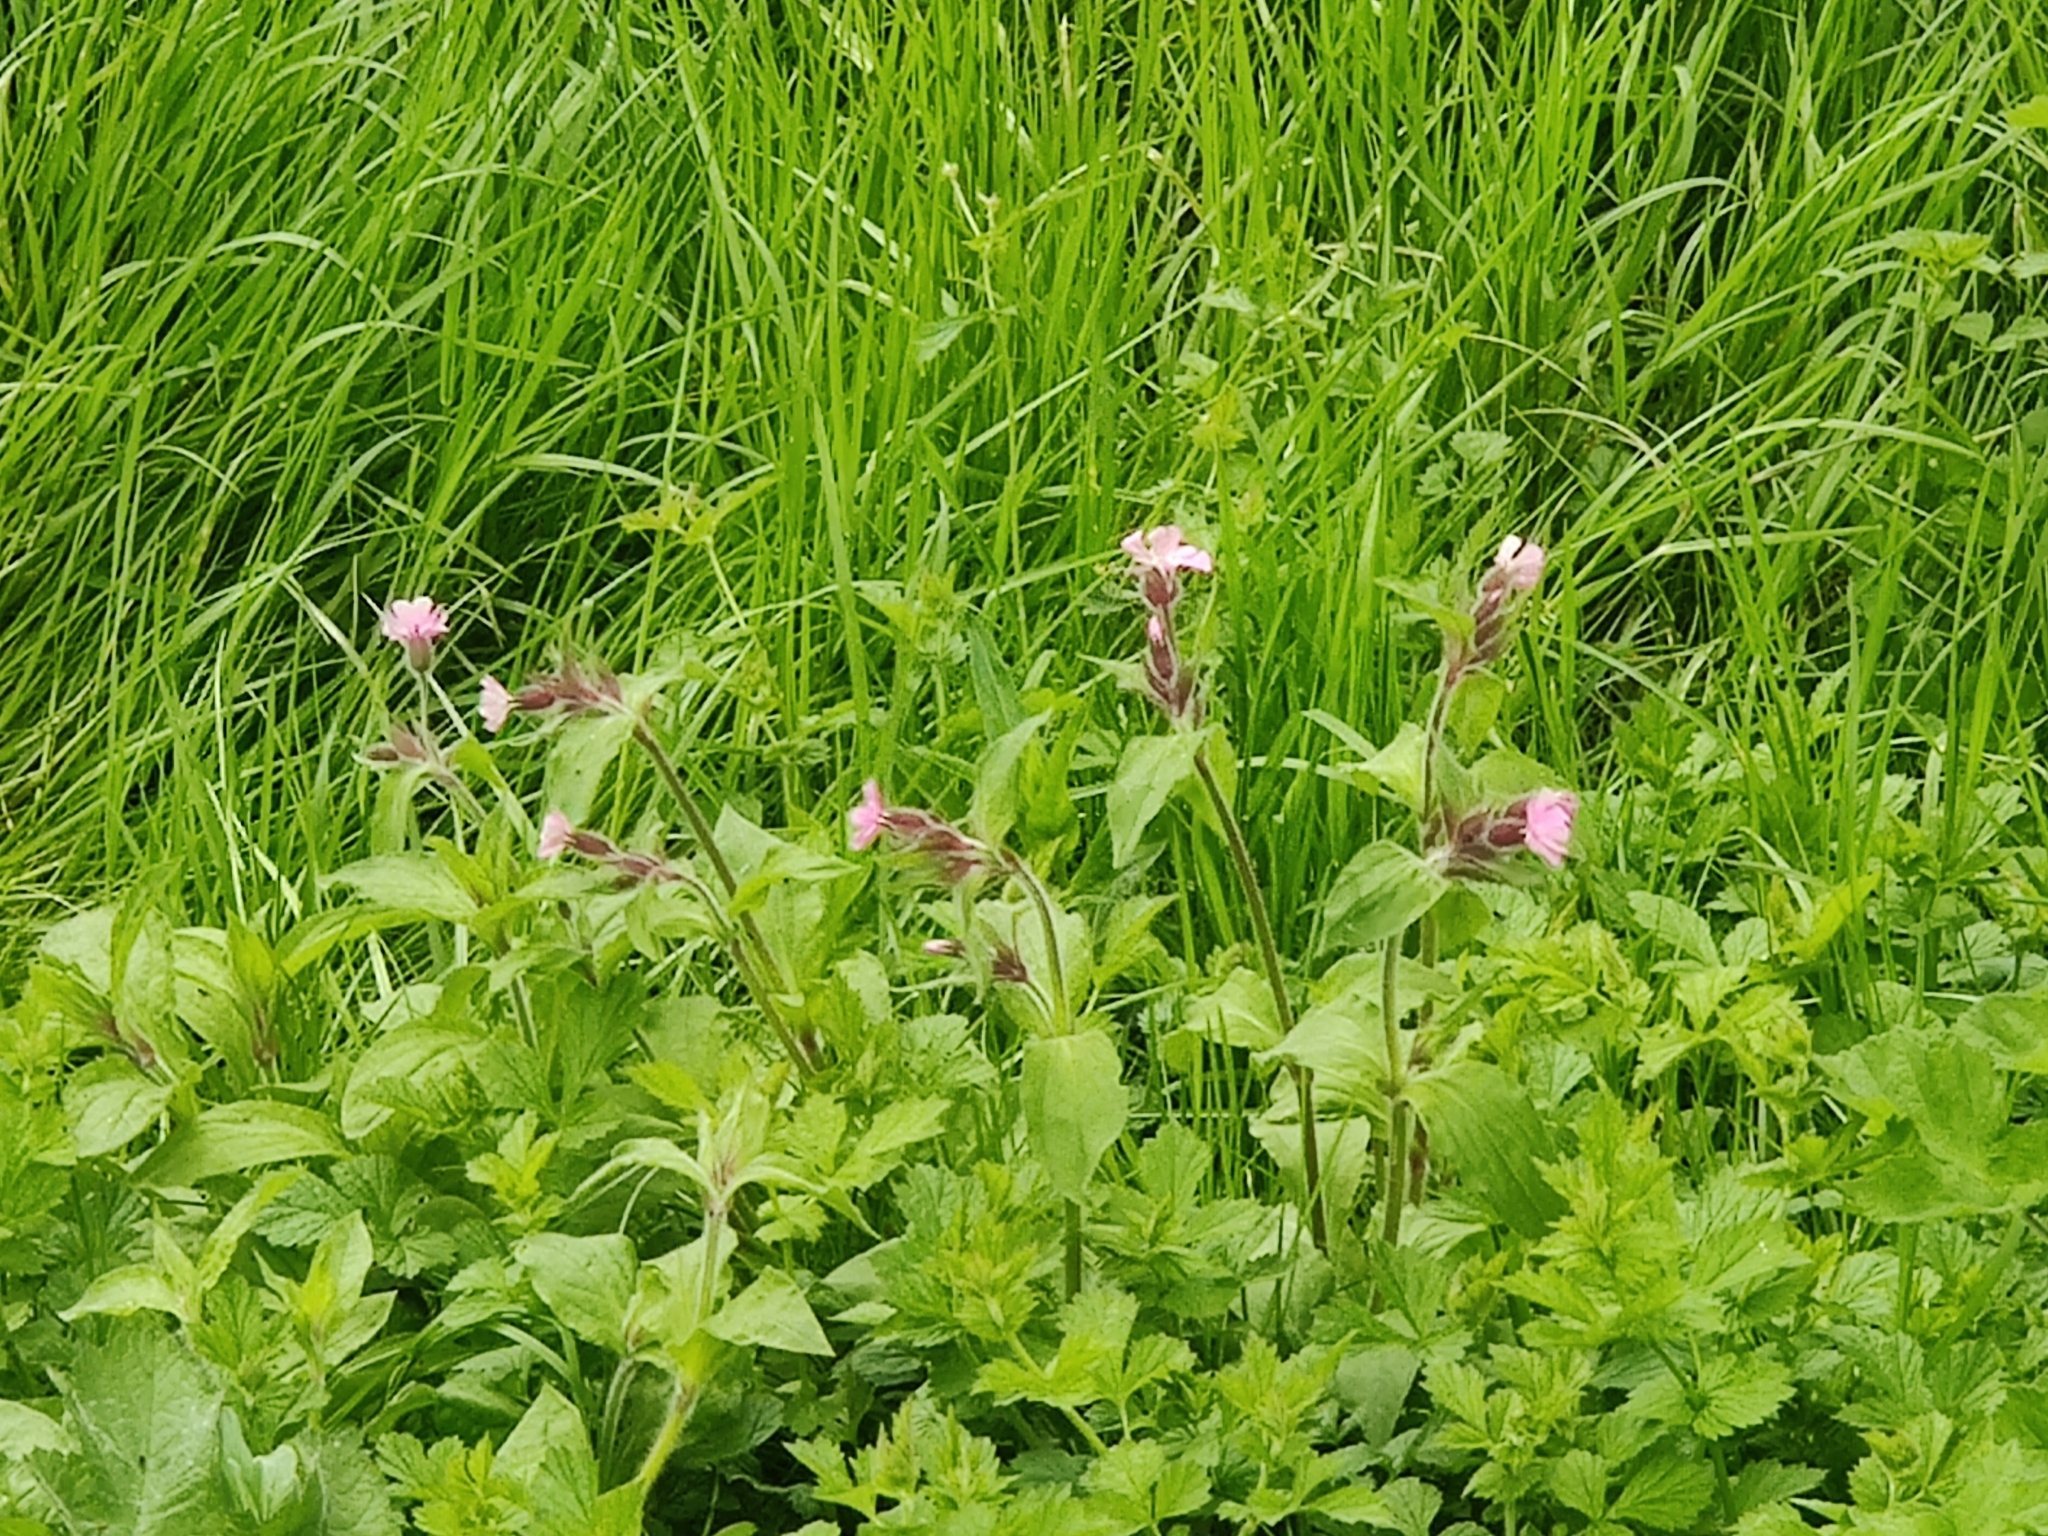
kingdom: Plantae
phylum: Tracheophyta
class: Magnoliopsida
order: Caryophyllales
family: Caryophyllaceae
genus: Silene
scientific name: Silene dioica
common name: Red campion
